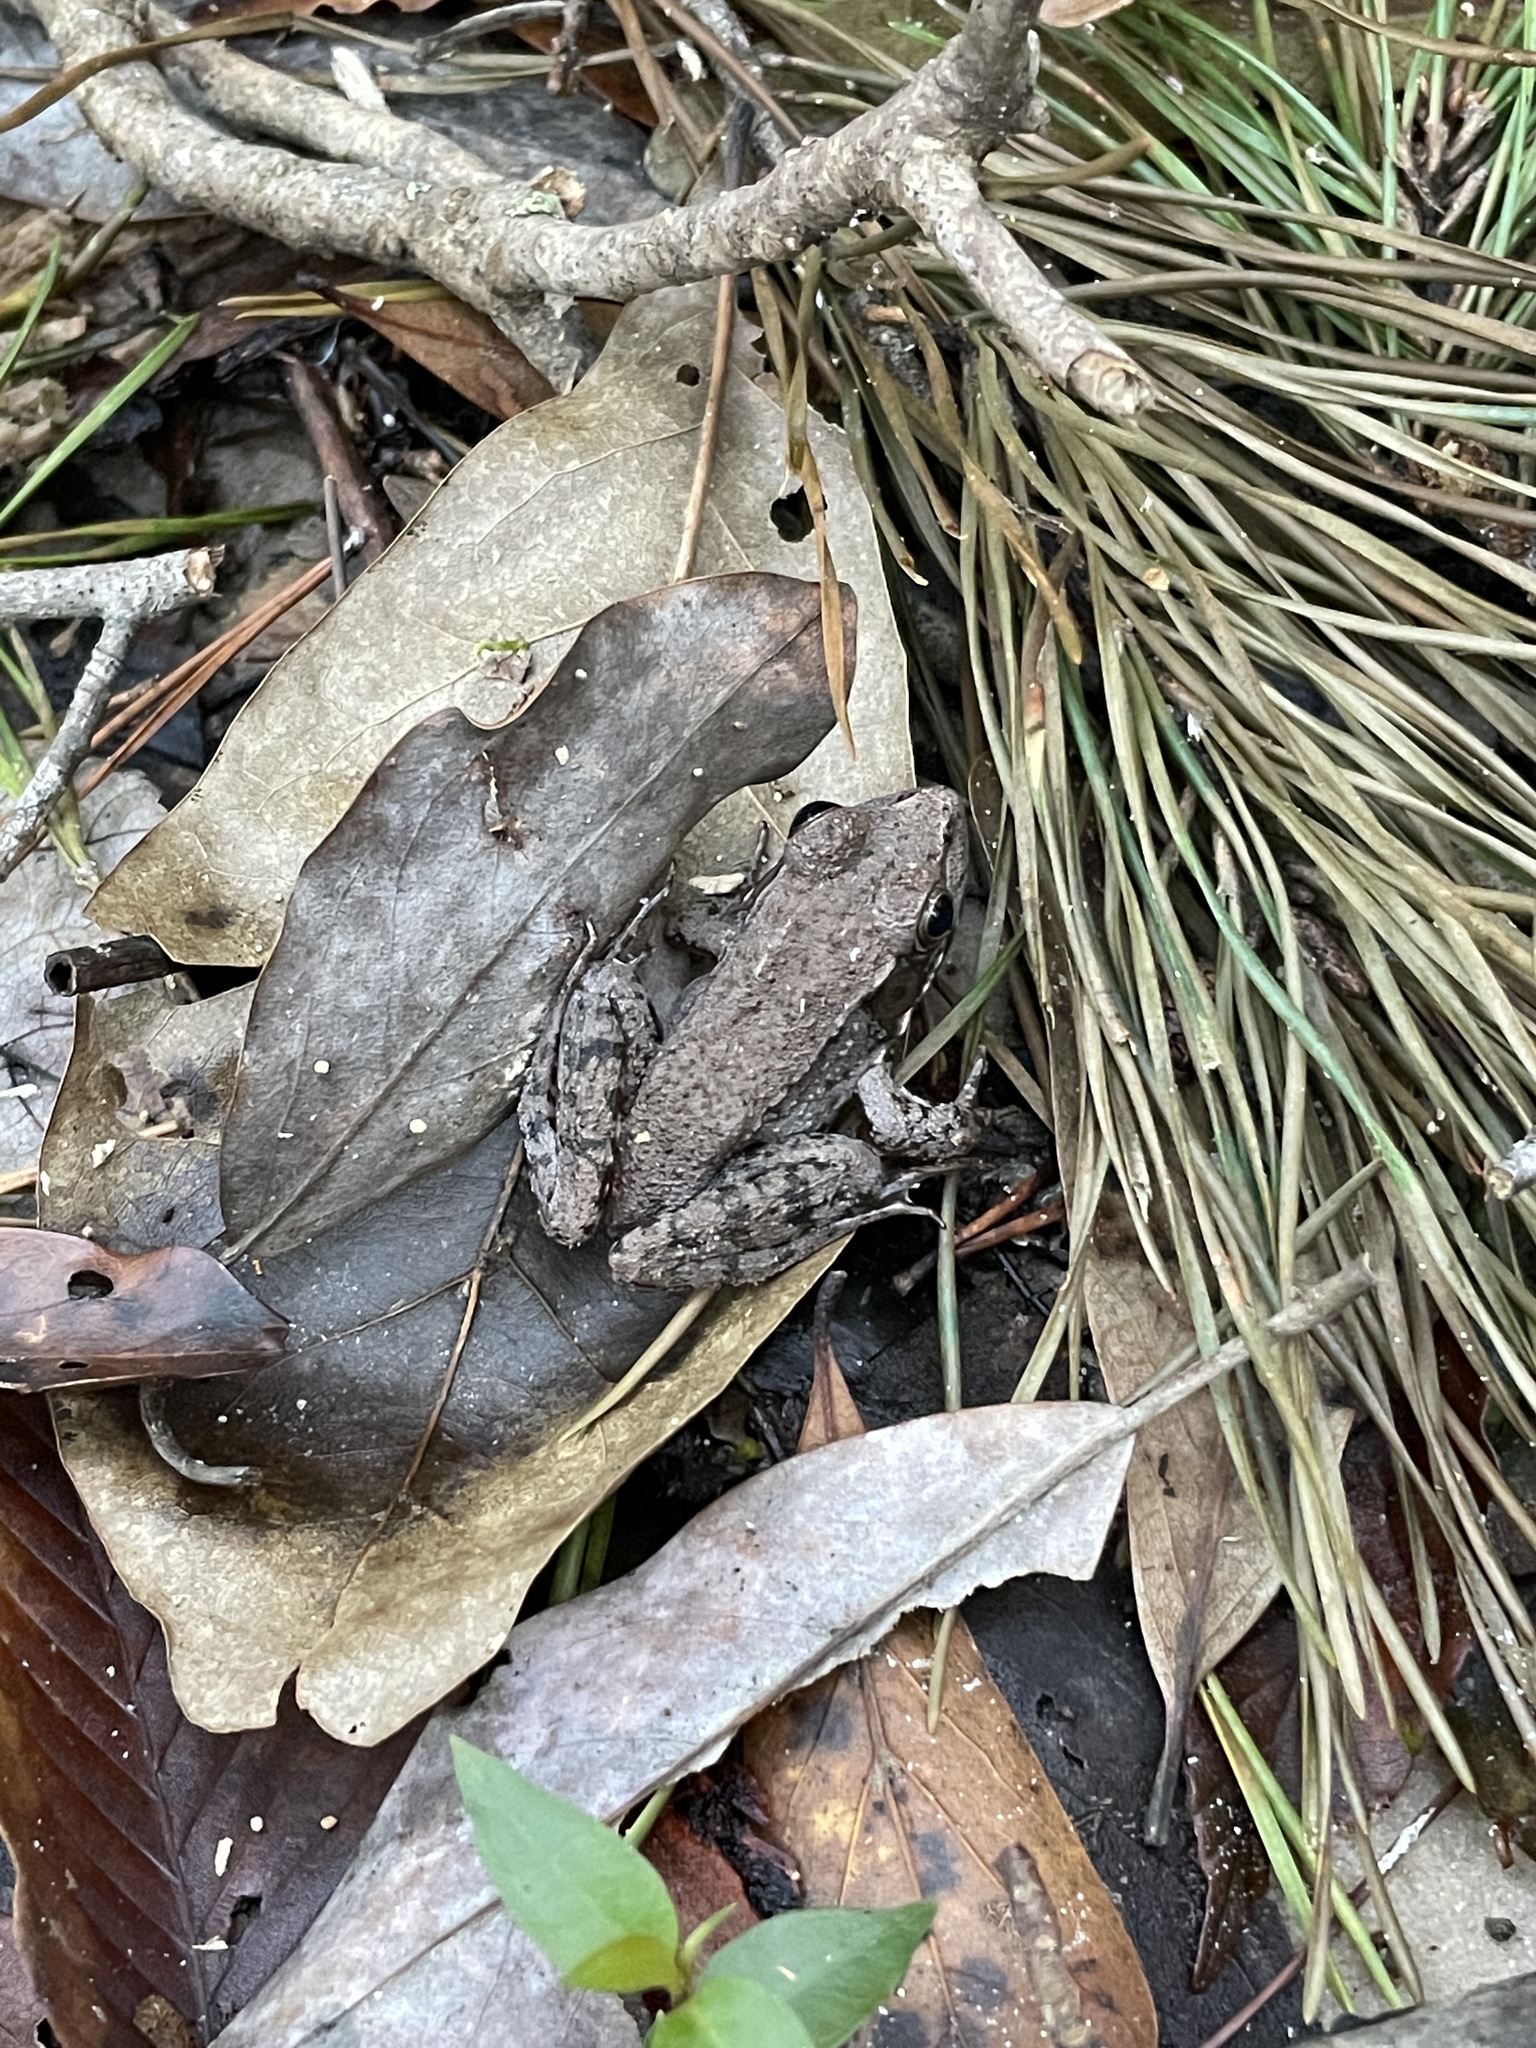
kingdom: Animalia
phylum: Chordata
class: Amphibia
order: Anura
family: Ranidae
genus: Lithobates
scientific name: Lithobates clamitans
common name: Green frog
